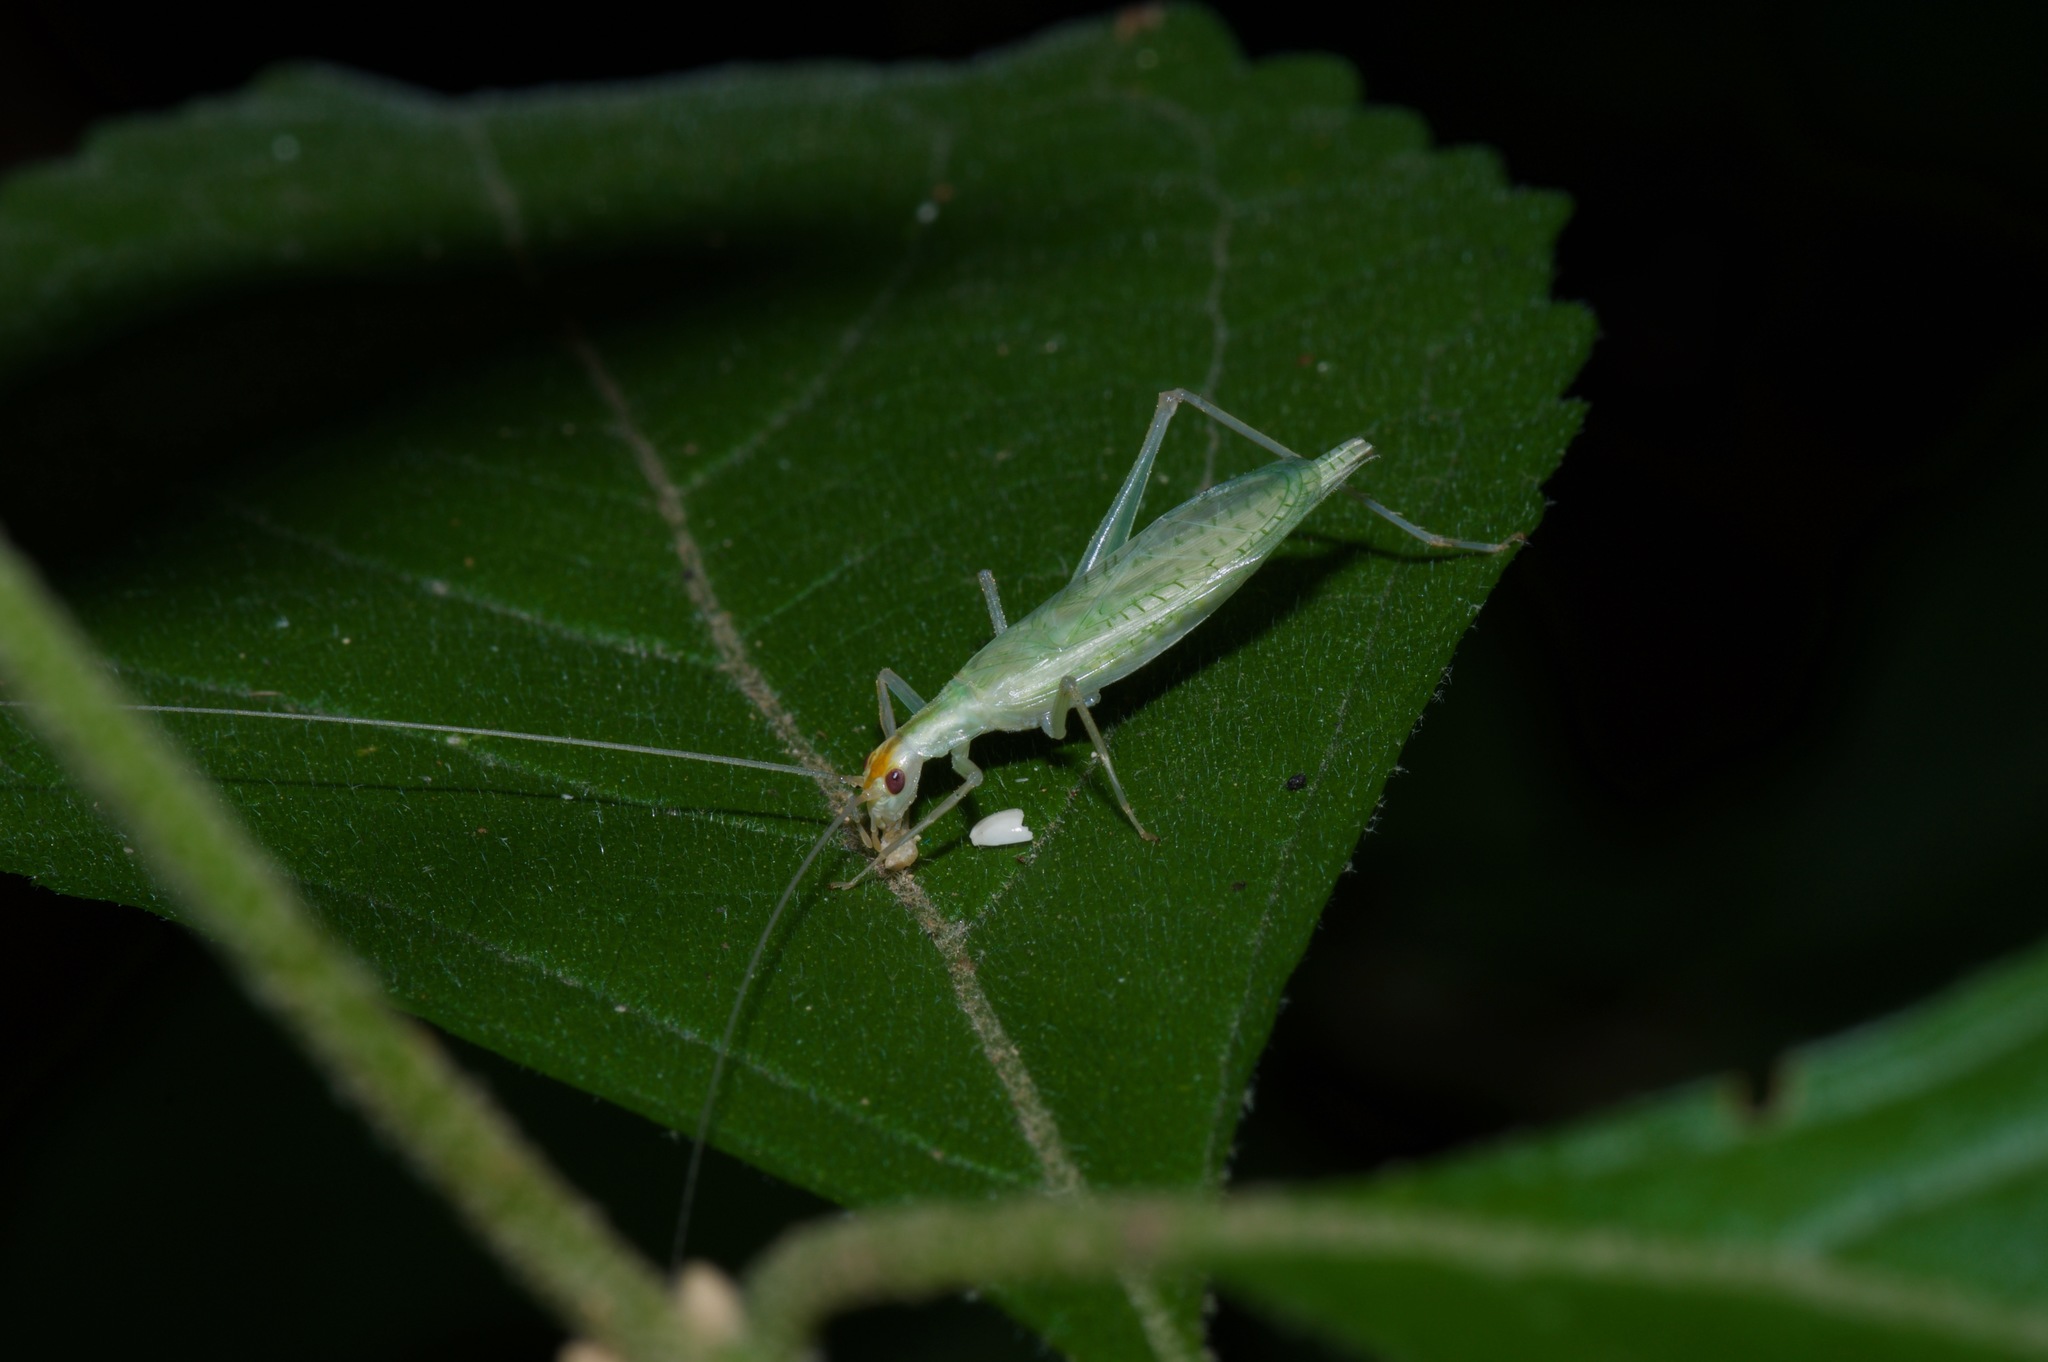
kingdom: Animalia
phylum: Arthropoda
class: Insecta
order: Orthoptera
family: Gryllidae
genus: Oecanthus
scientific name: Oecanthus fultoni
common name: Snowy tree cricket
